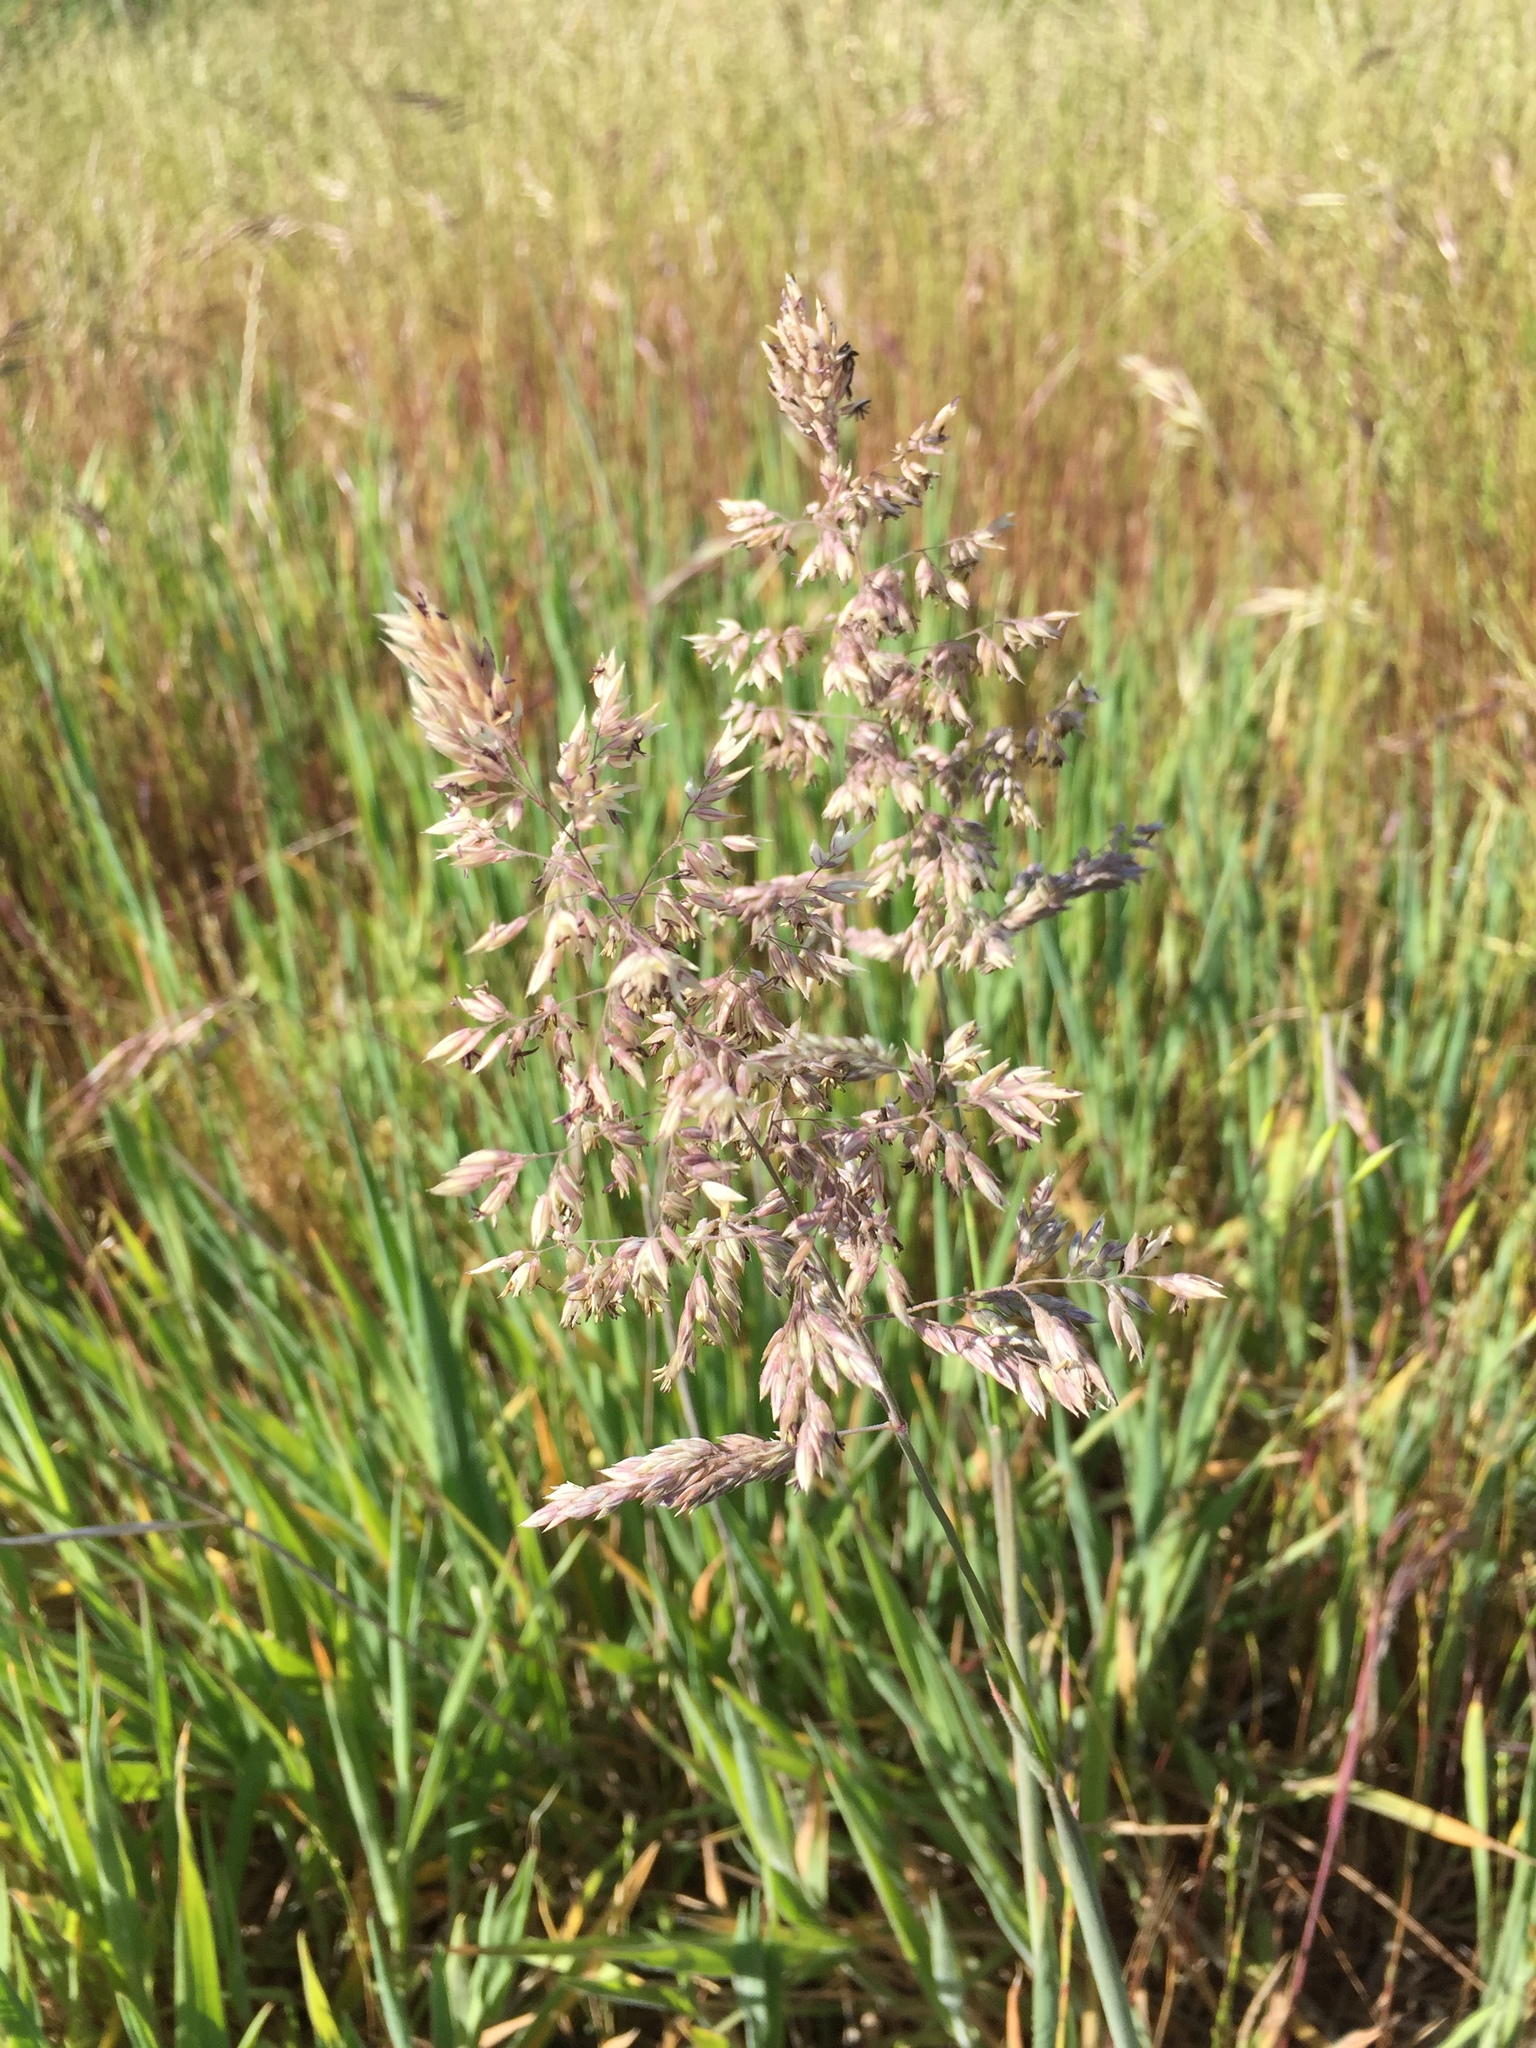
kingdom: Plantae
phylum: Tracheophyta
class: Liliopsida
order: Poales
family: Poaceae
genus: Holcus
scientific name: Holcus lanatus
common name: Yorkshire-fog
